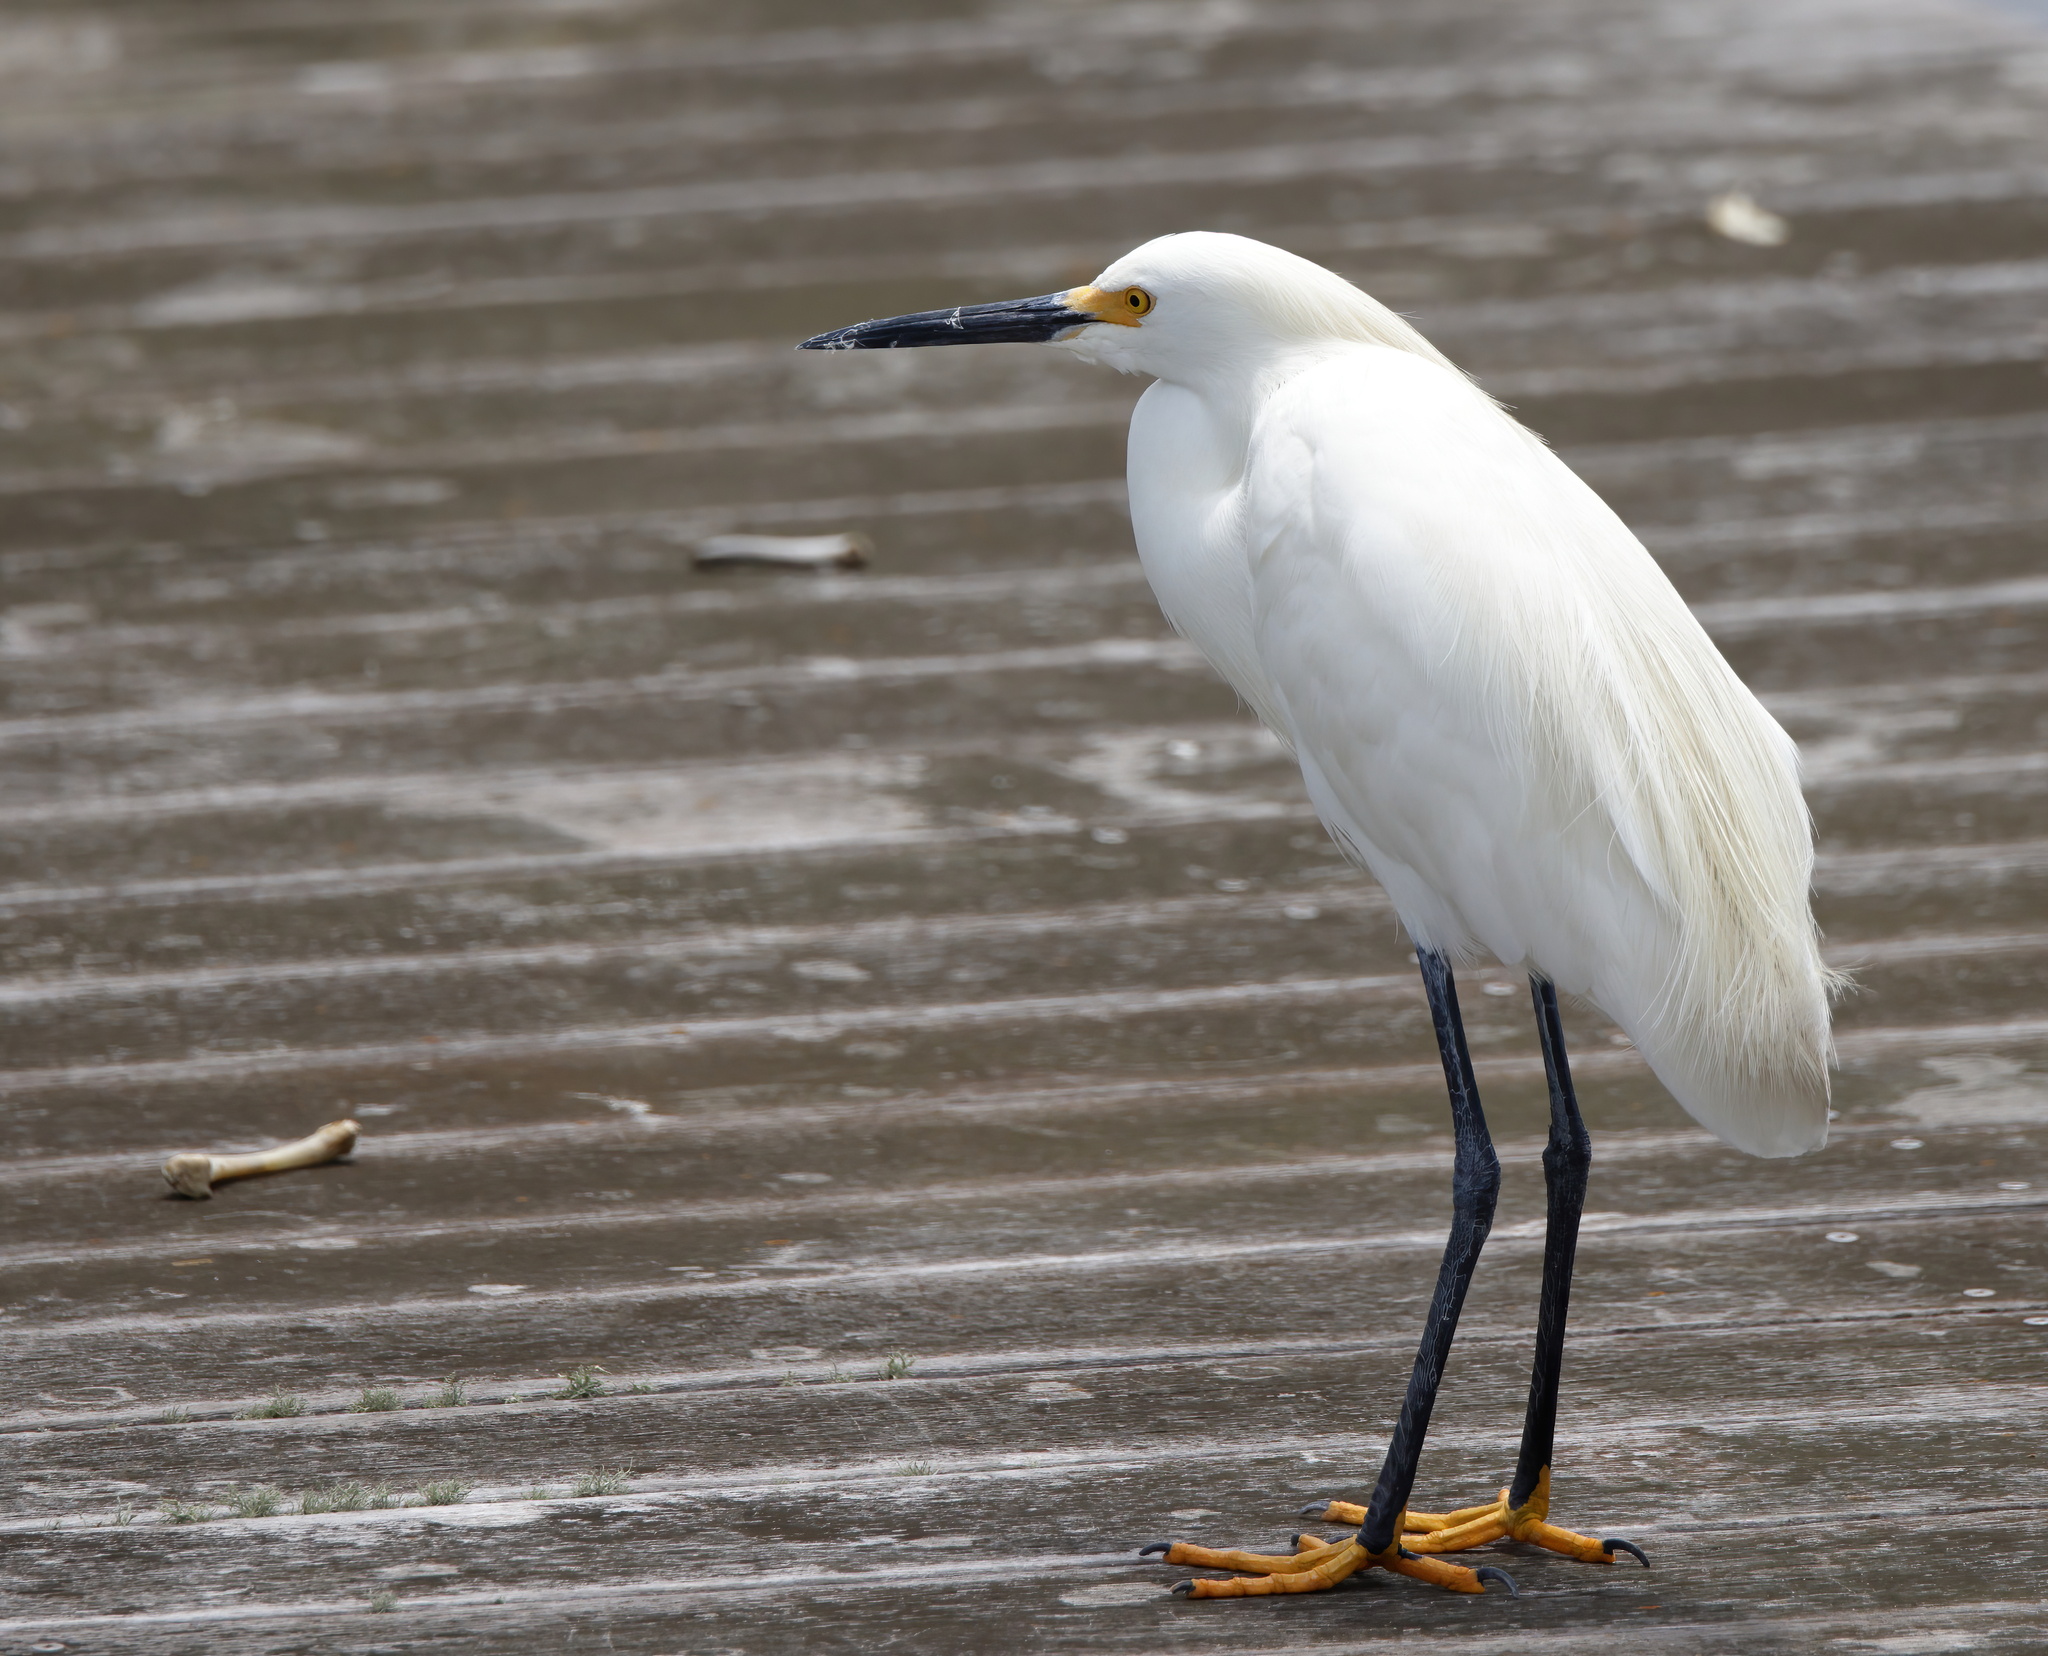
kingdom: Animalia
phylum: Chordata
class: Aves
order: Pelecaniformes
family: Ardeidae
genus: Egretta
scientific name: Egretta thula
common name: Snowy egret
